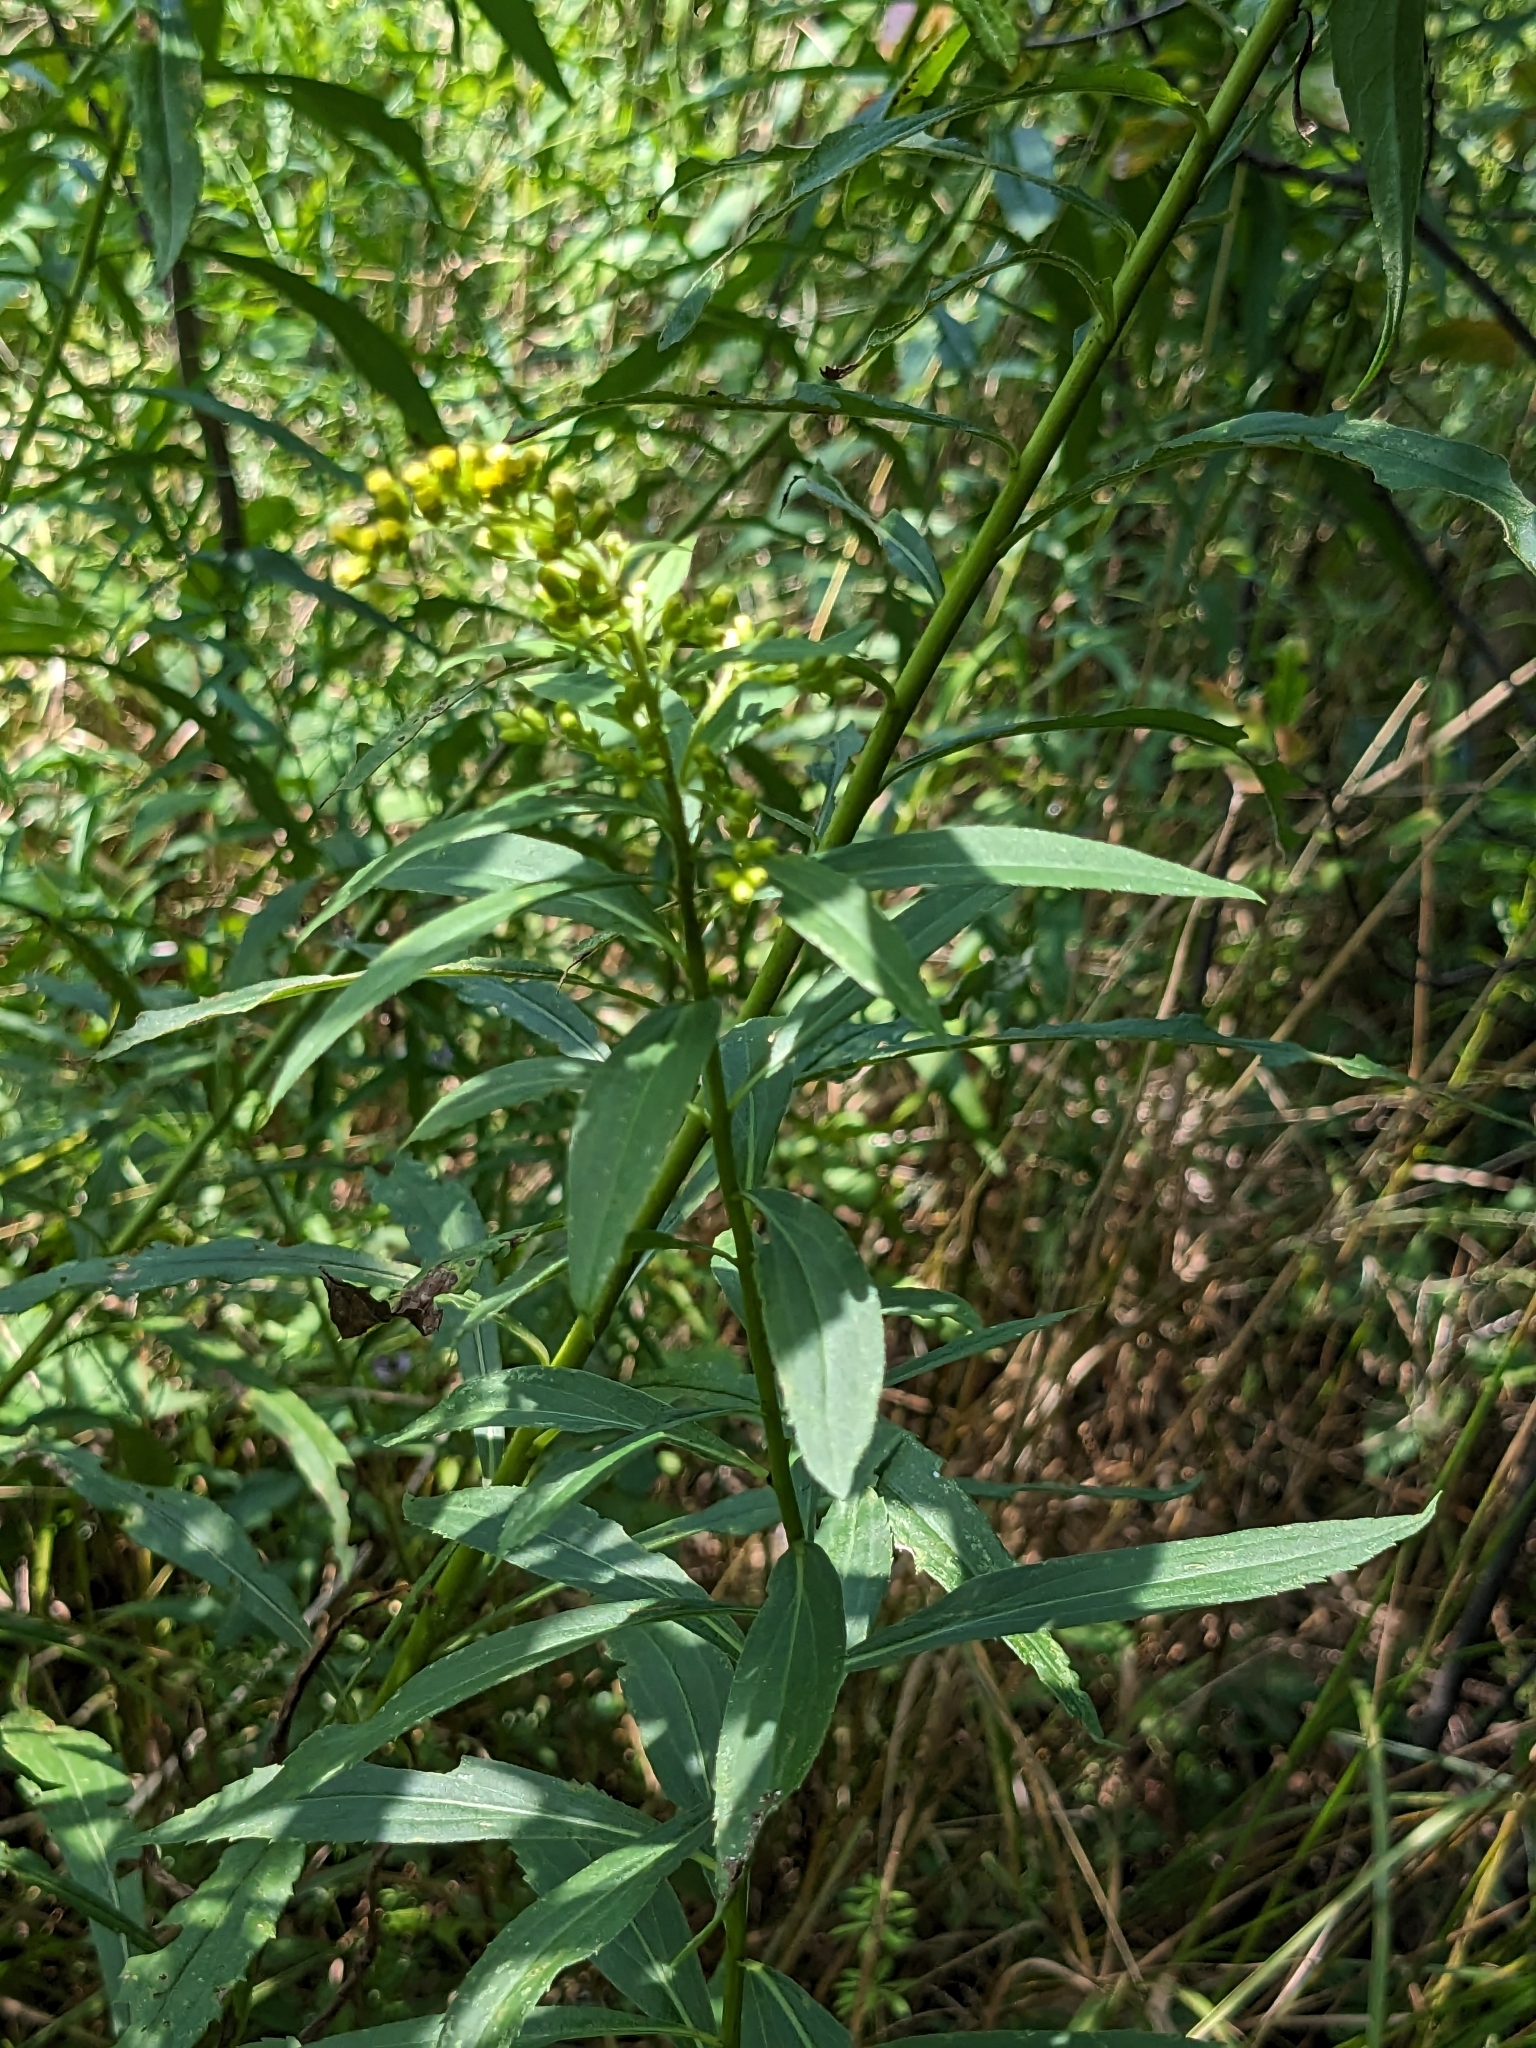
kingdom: Plantae
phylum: Tracheophyta
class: Magnoliopsida
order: Asterales
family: Asteraceae
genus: Solidago
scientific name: Solidago gigantea
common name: Giant goldenrod
